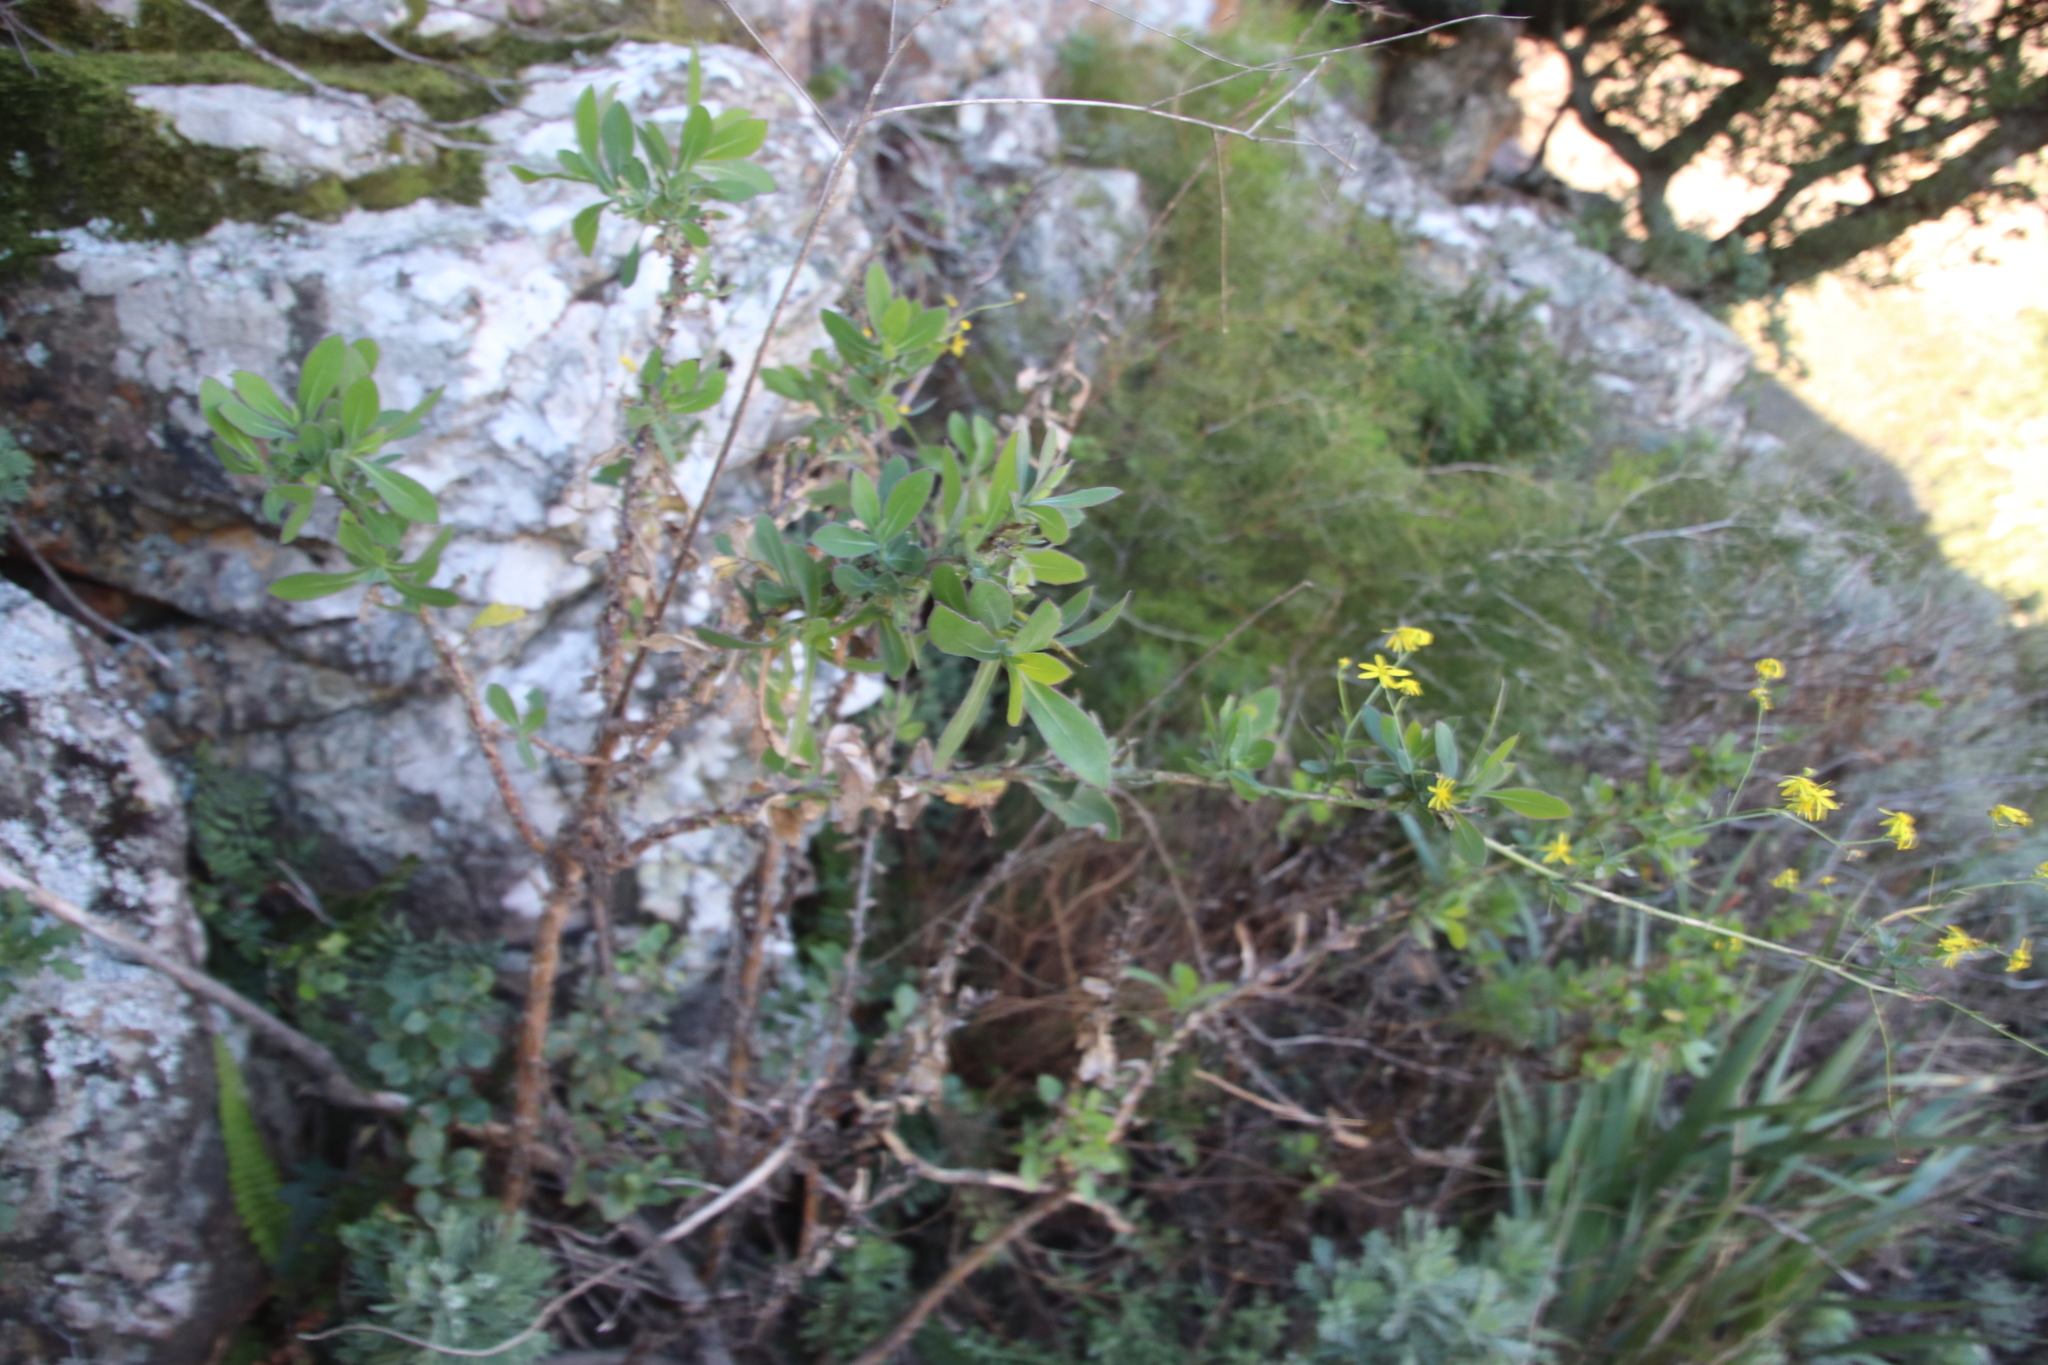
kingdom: Plantae
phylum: Tracheophyta
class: Magnoliopsida
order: Asterales
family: Asteraceae
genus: Othonna
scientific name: Othonna quinquedentata
